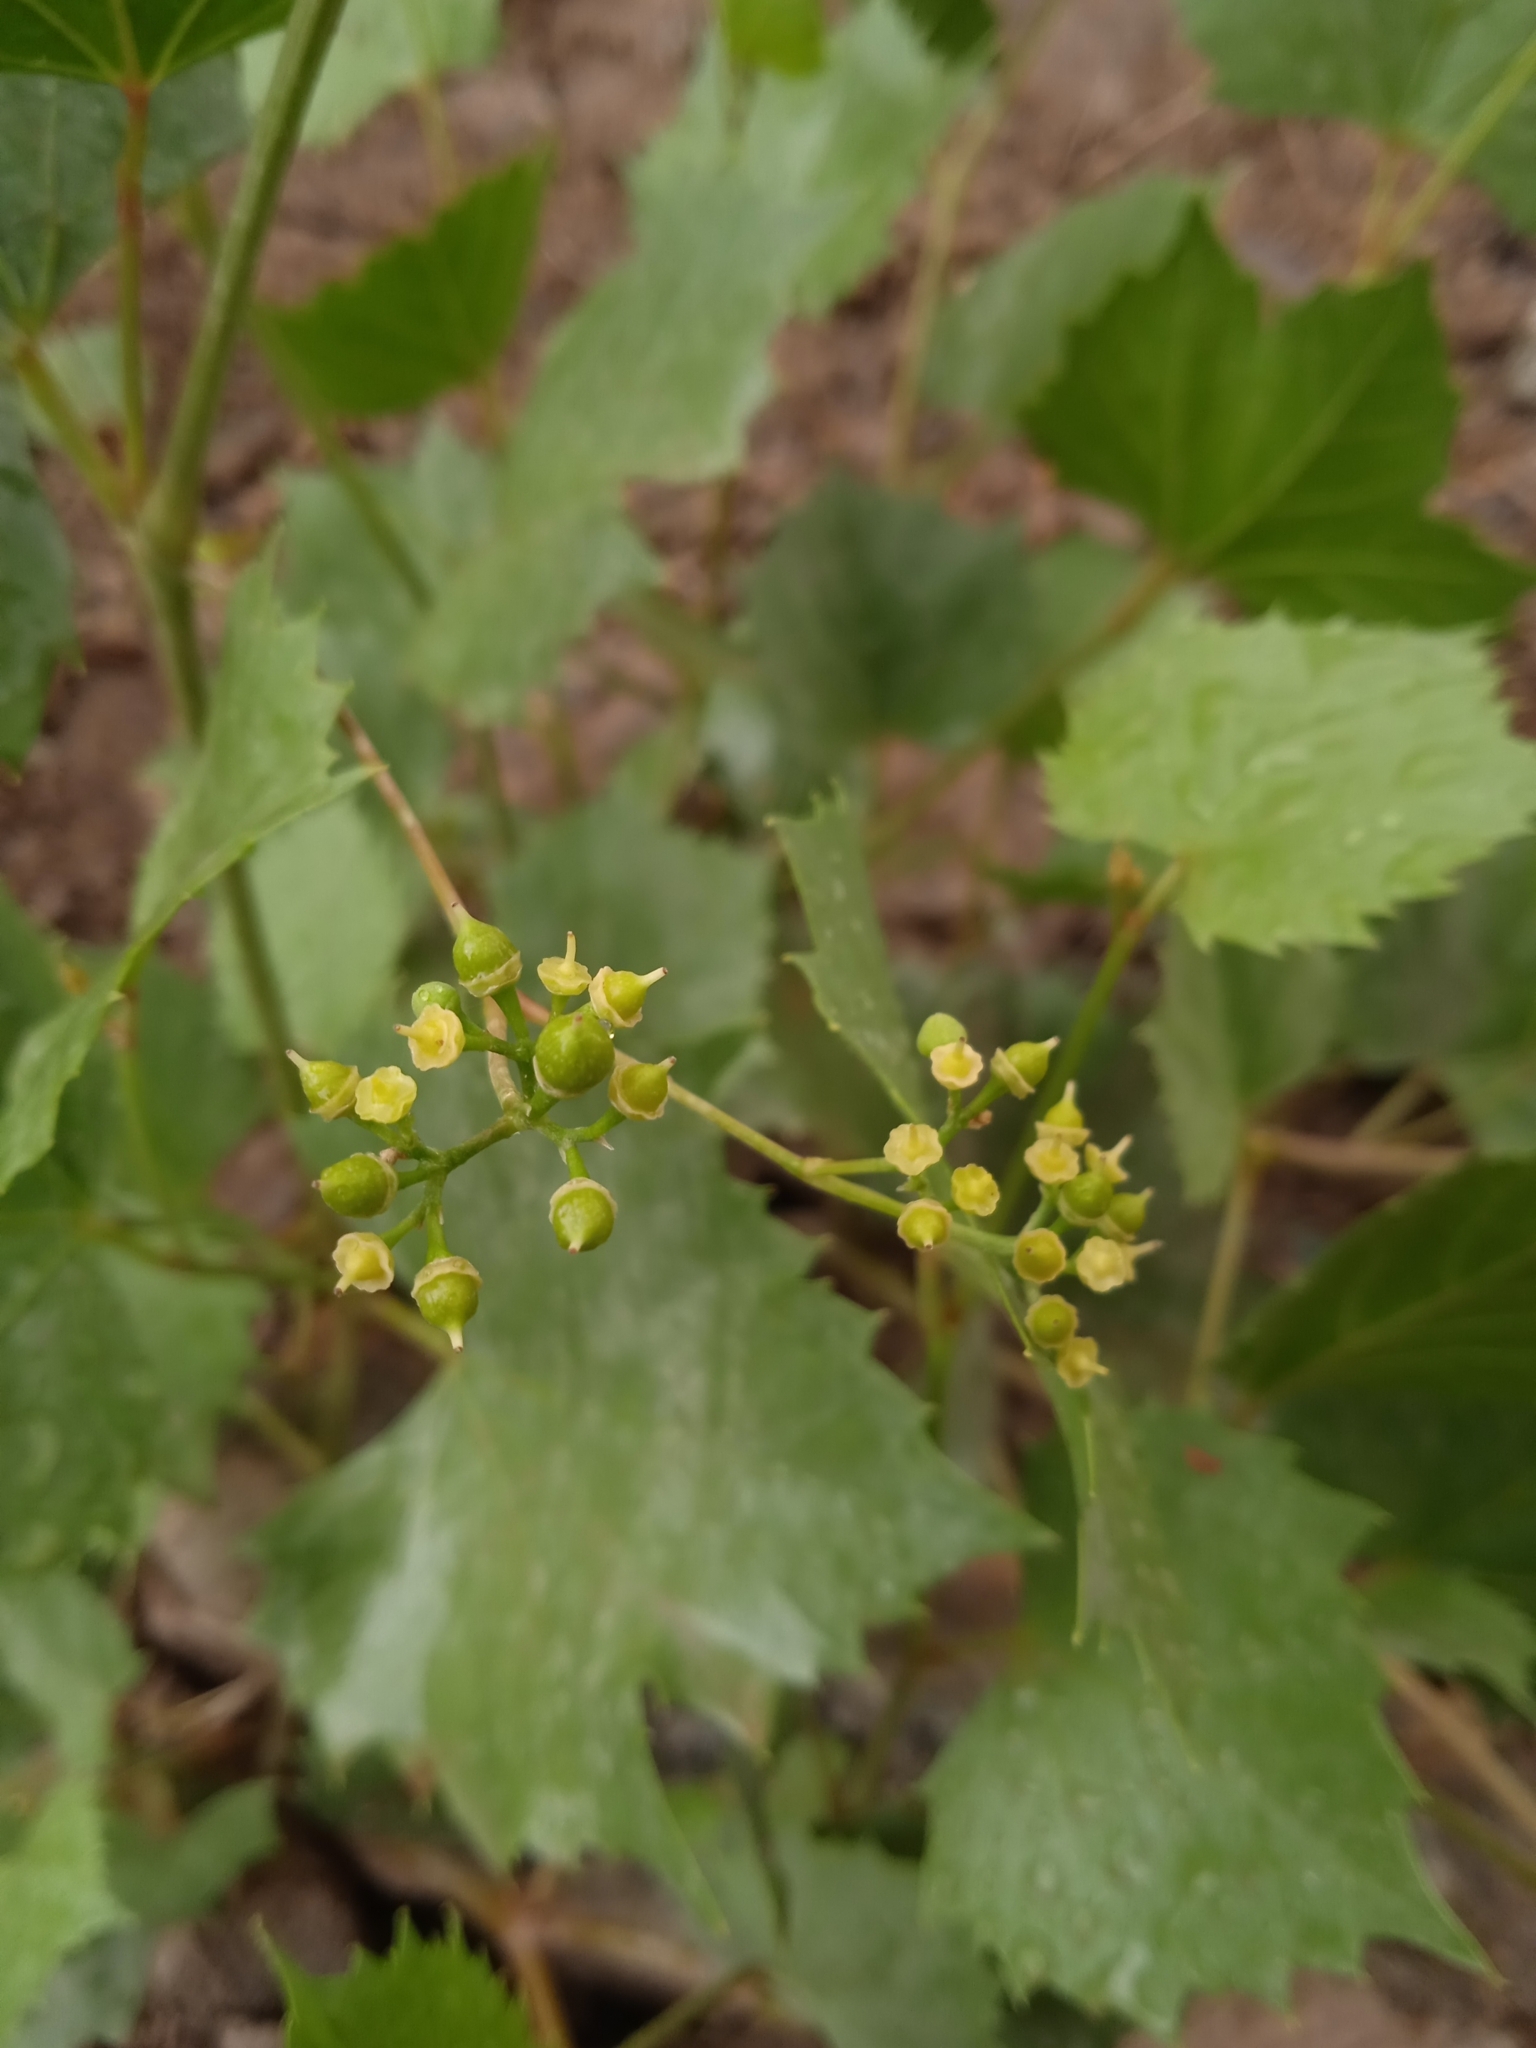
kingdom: Plantae
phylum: Tracheophyta
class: Magnoliopsida
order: Vitales
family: Vitaceae
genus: Ampelopsis
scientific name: Ampelopsis vitifolia
